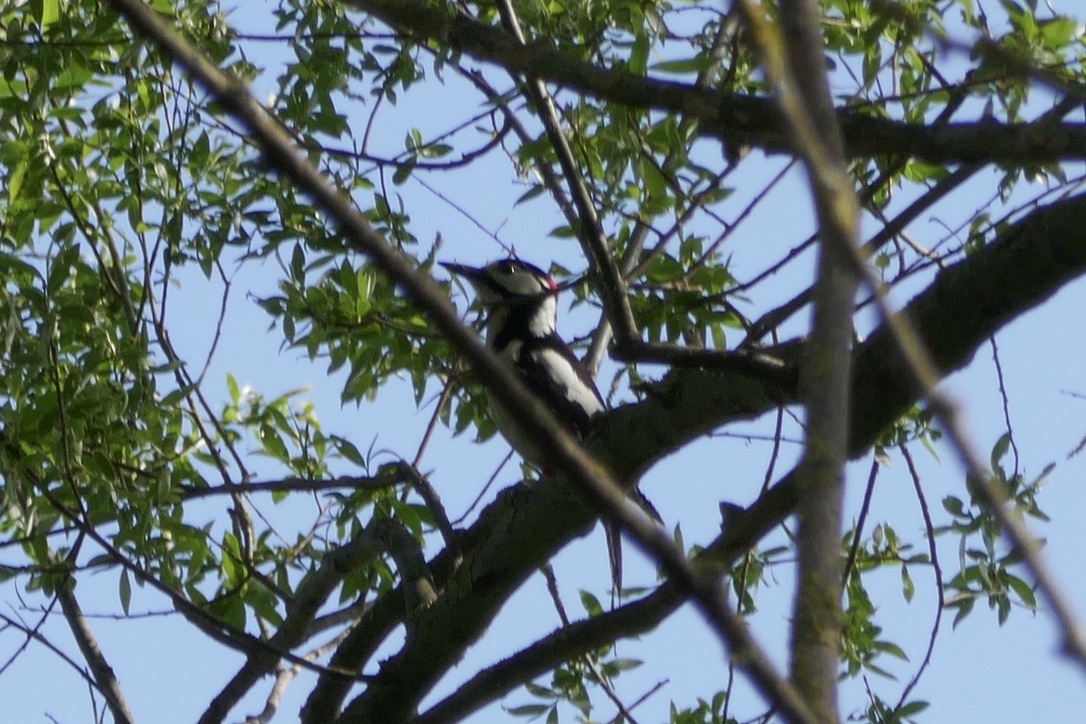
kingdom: Animalia
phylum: Chordata
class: Aves
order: Piciformes
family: Picidae
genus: Dendrocopos
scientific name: Dendrocopos major
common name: Great spotted woodpecker
